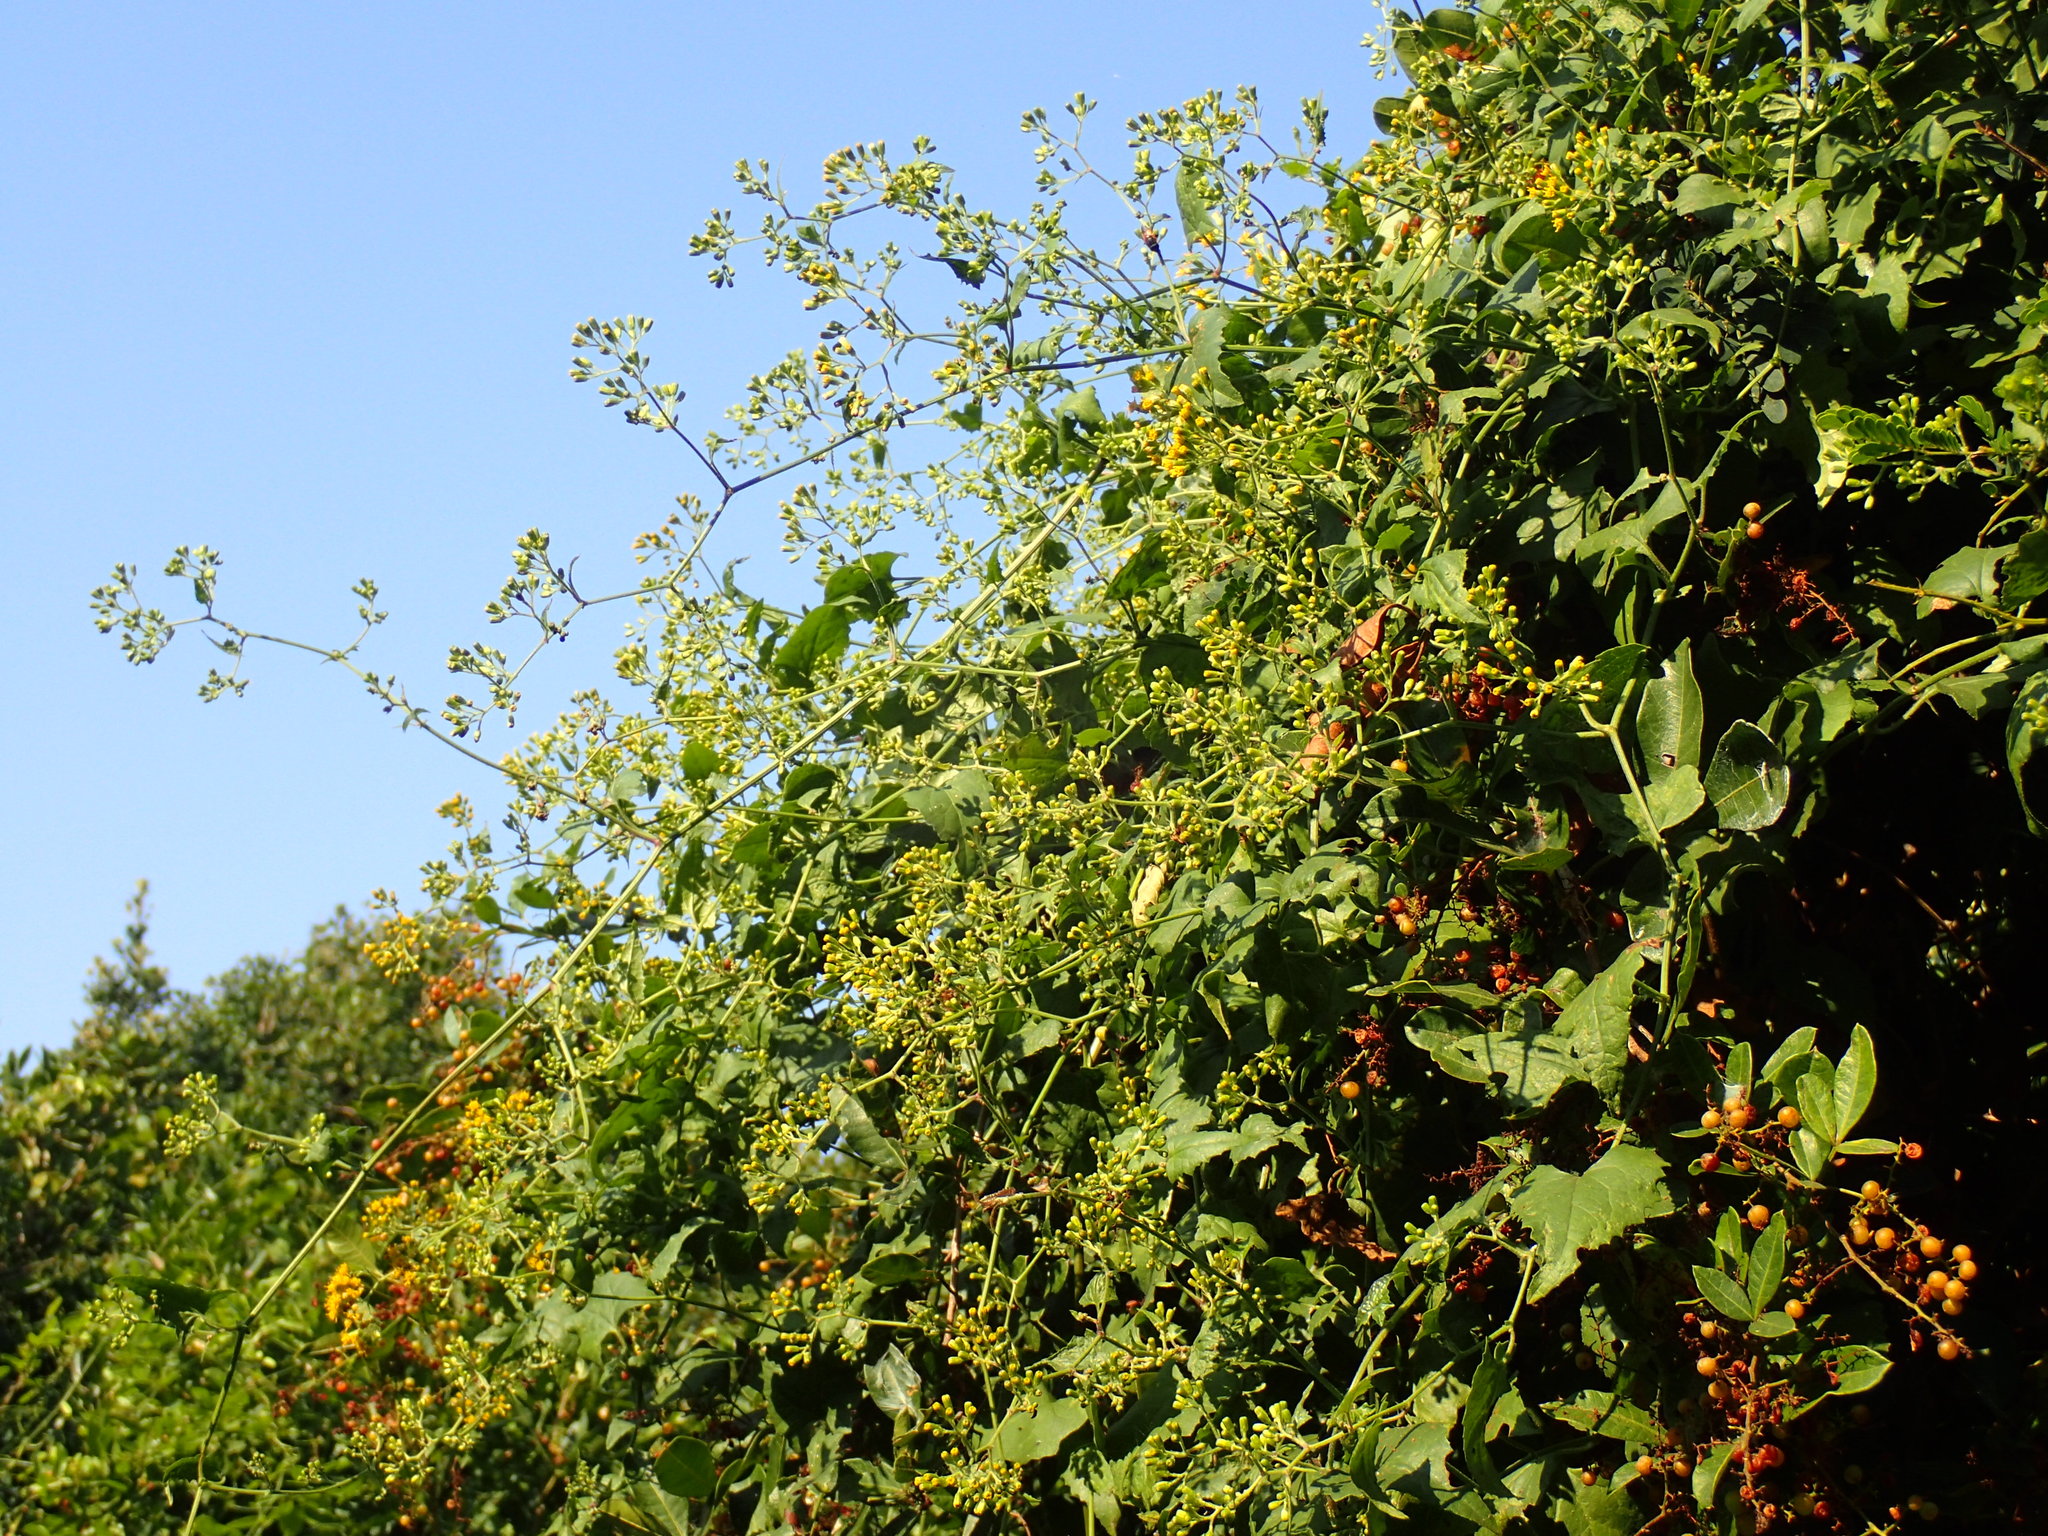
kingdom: Plantae
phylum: Tracheophyta
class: Magnoliopsida
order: Asterales
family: Asteraceae
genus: Senecio
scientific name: Senecio deltoideus
